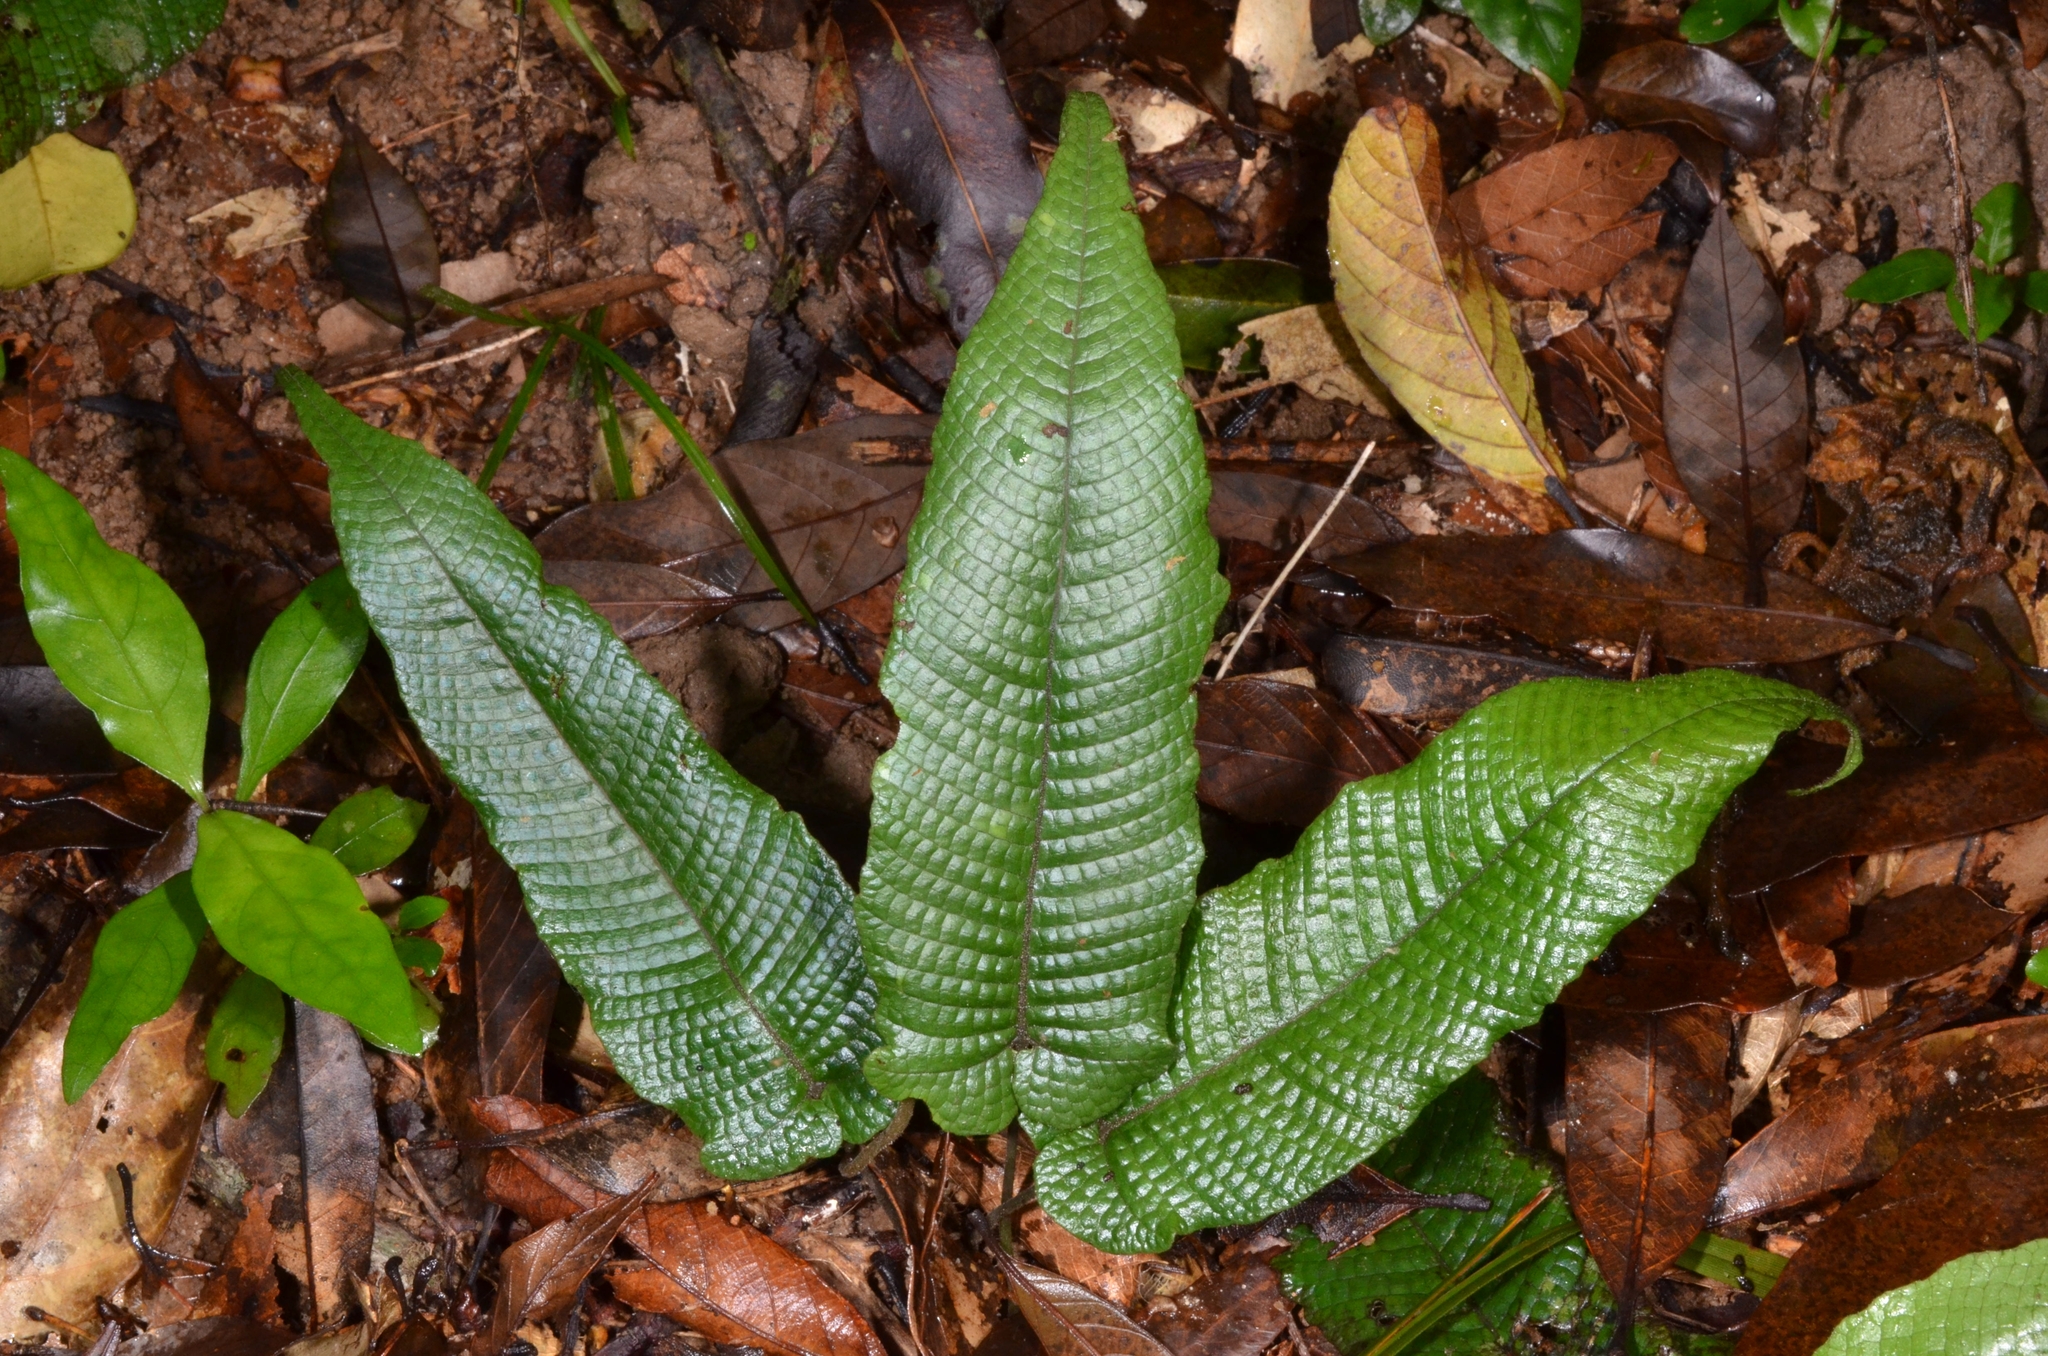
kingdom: Plantae
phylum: Tracheophyta
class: Polypodiopsida
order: Polypodiales
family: Thelypteridaceae
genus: Grypothrix
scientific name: Grypothrix simplex
